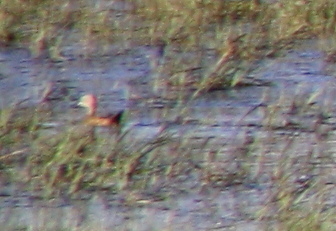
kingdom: Animalia
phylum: Chordata
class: Aves
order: Anseriformes
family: Anatidae
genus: Spatula
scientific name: Spatula platalea
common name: Red shoveler
